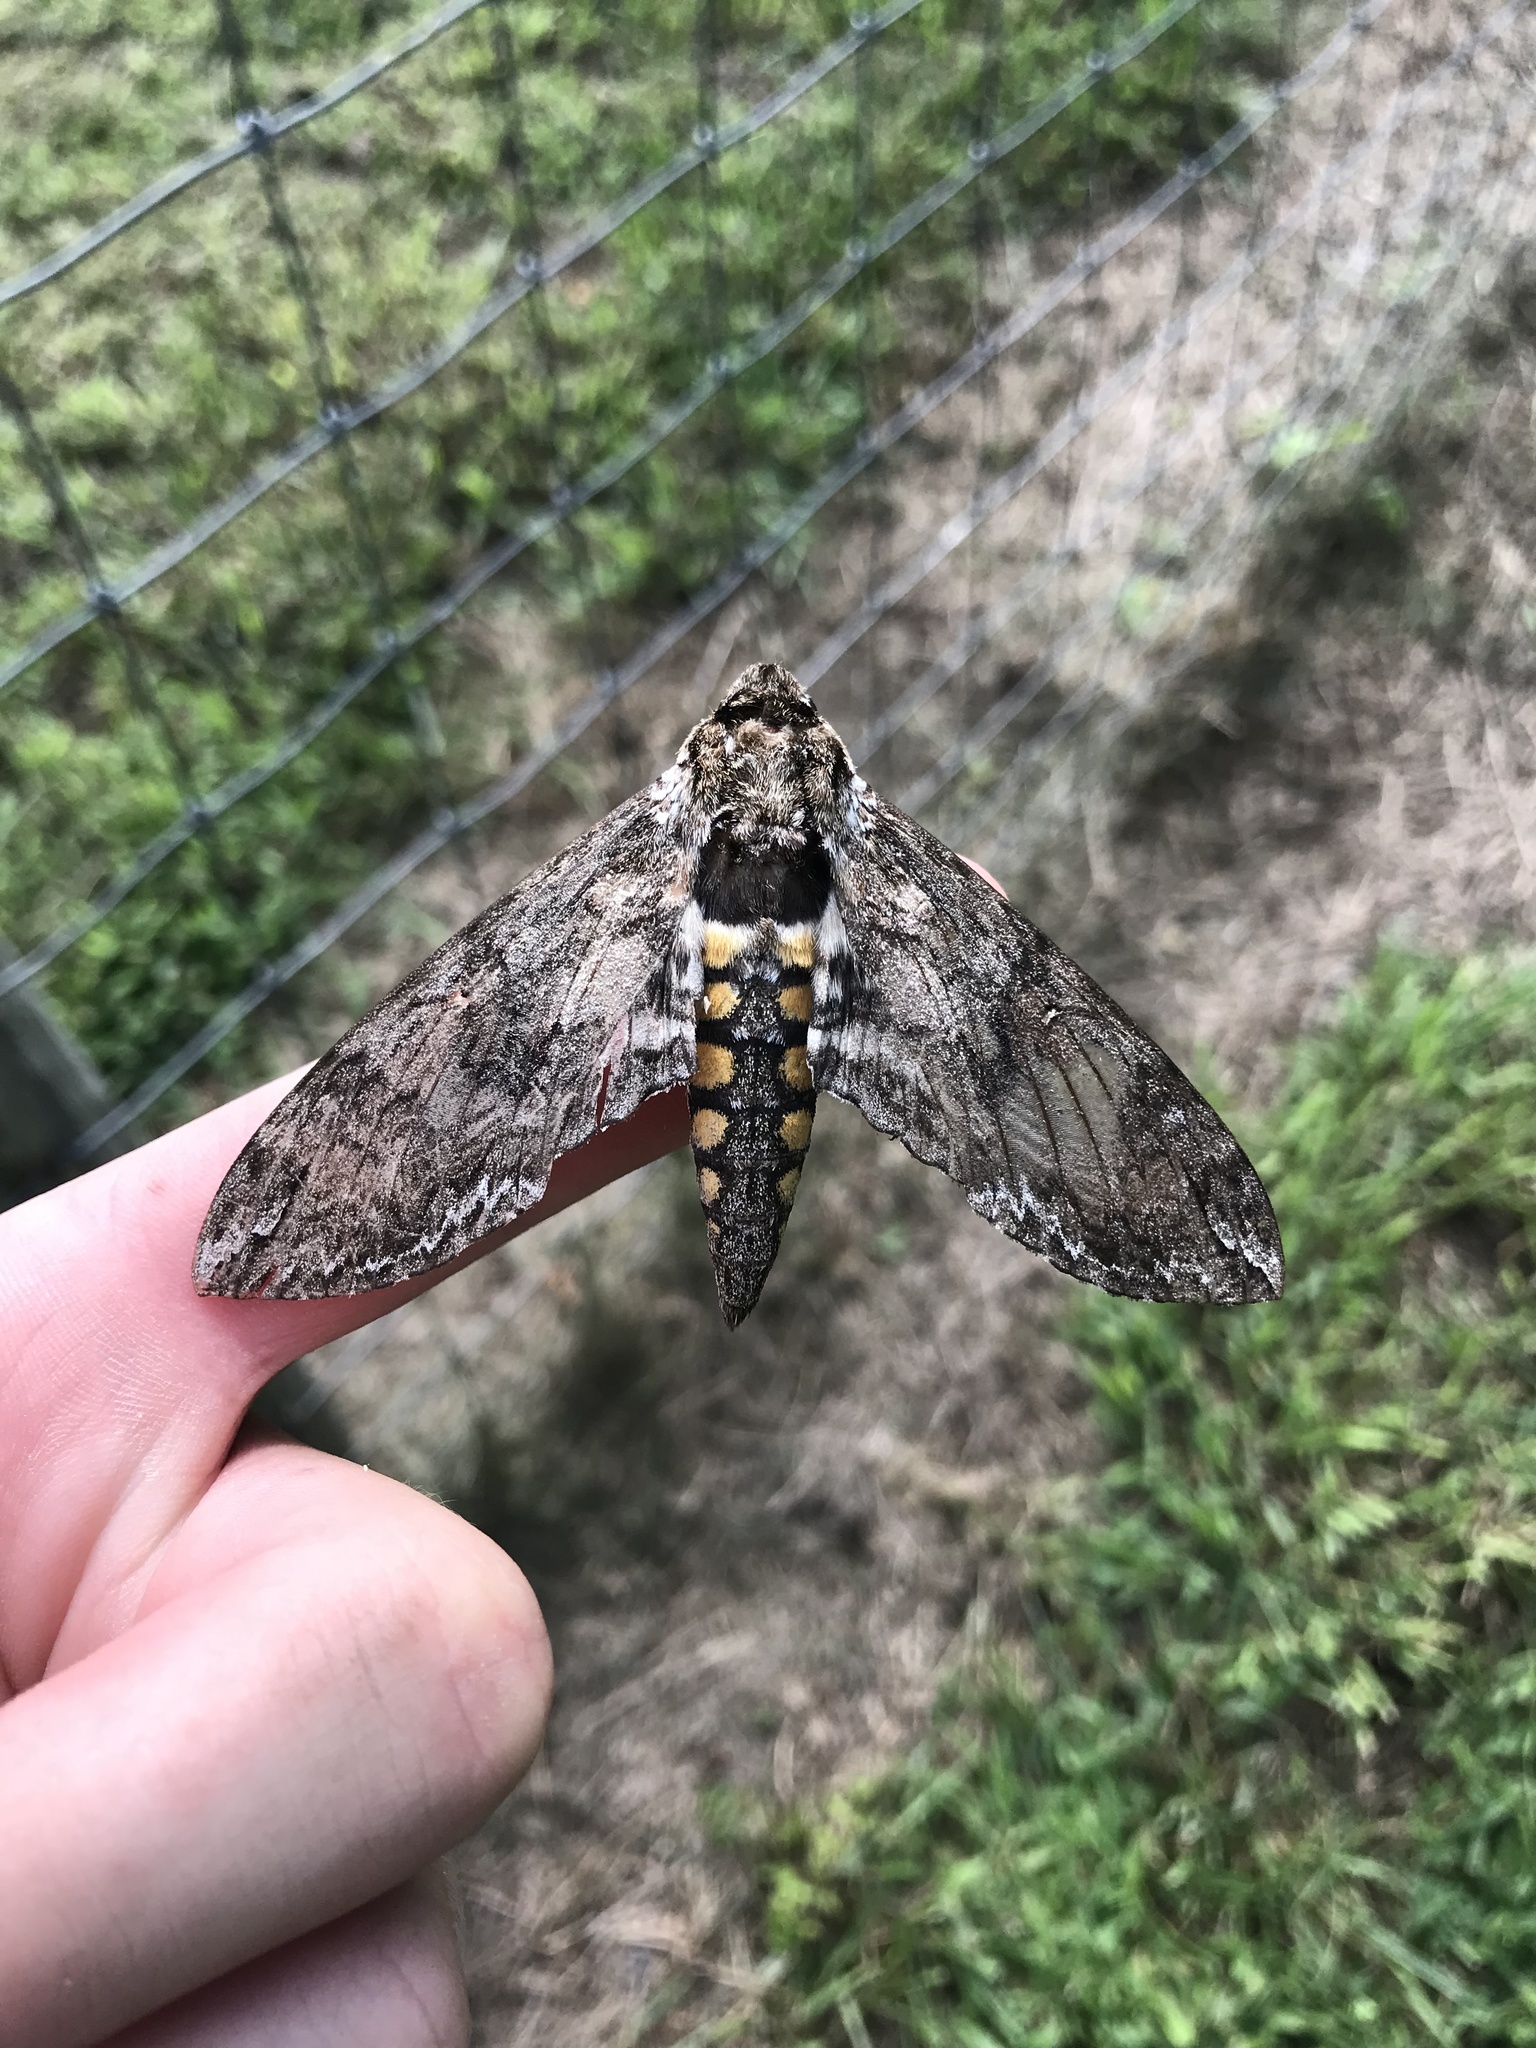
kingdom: Animalia
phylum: Arthropoda
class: Insecta
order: Lepidoptera
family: Sphingidae
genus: Manduca
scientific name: Manduca sexta
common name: Carolina sphinx
